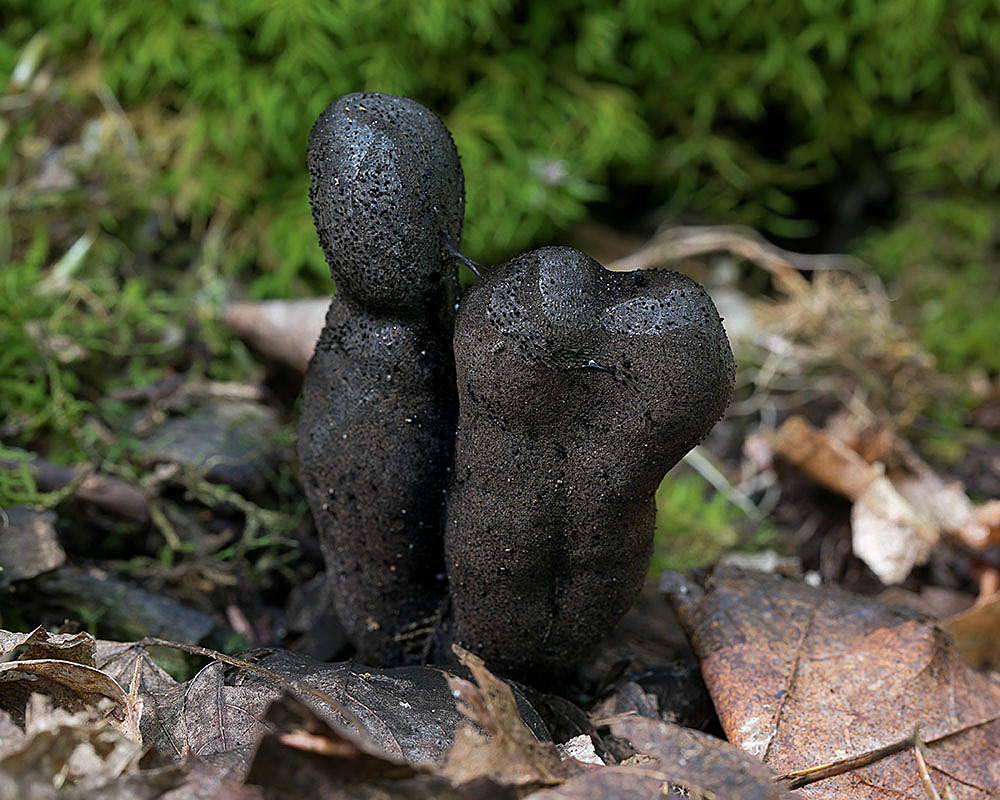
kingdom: Fungi
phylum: Ascomycota
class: Sordariomycetes
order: Xylariales
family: Xylariaceae
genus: Xylaria
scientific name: Xylaria polymorpha
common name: Dead man's fingers
